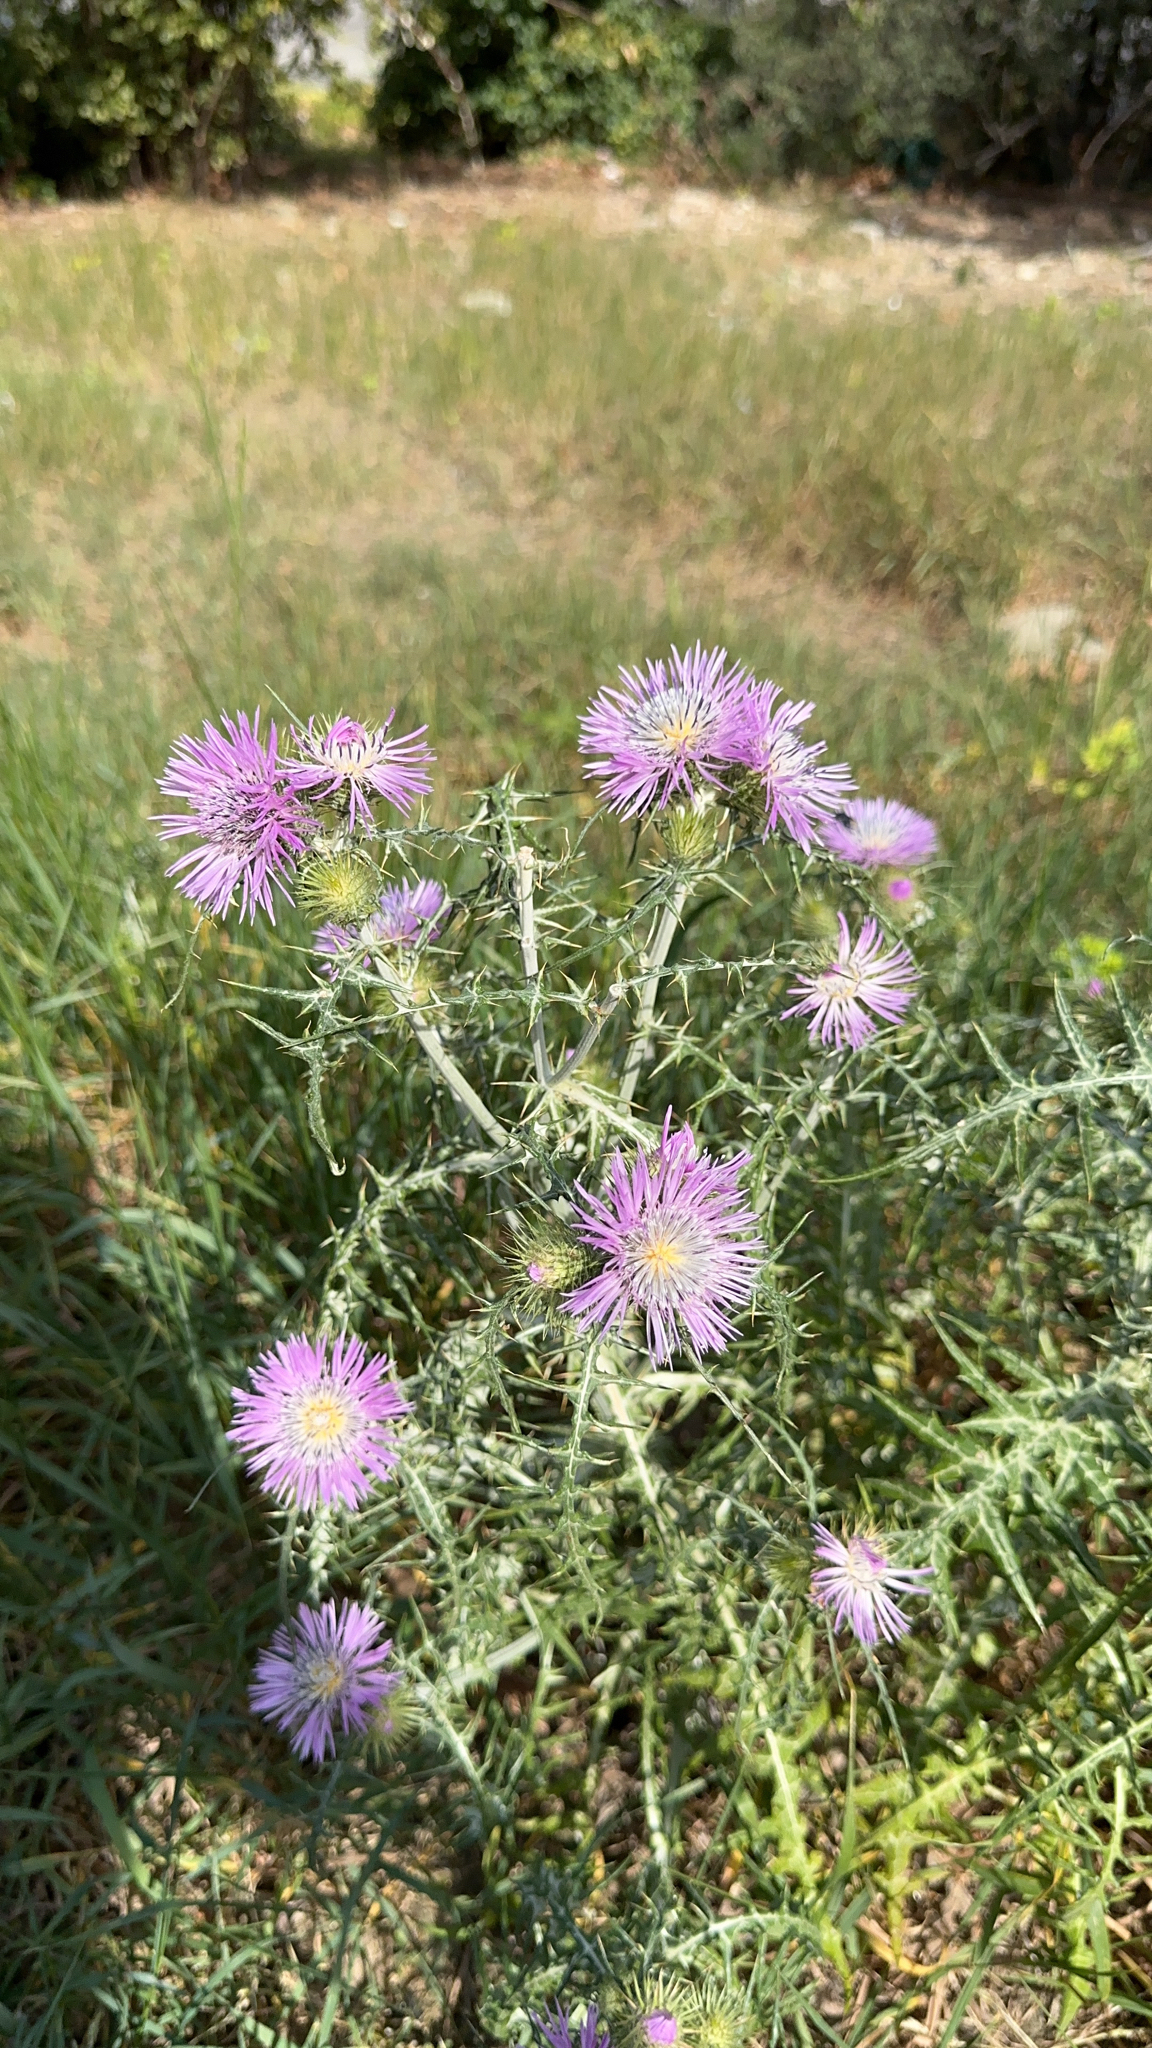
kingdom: Plantae
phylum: Tracheophyta
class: Magnoliopsida
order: Asterales
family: Asteraceae
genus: Galactites
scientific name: Galactites tomentosa
